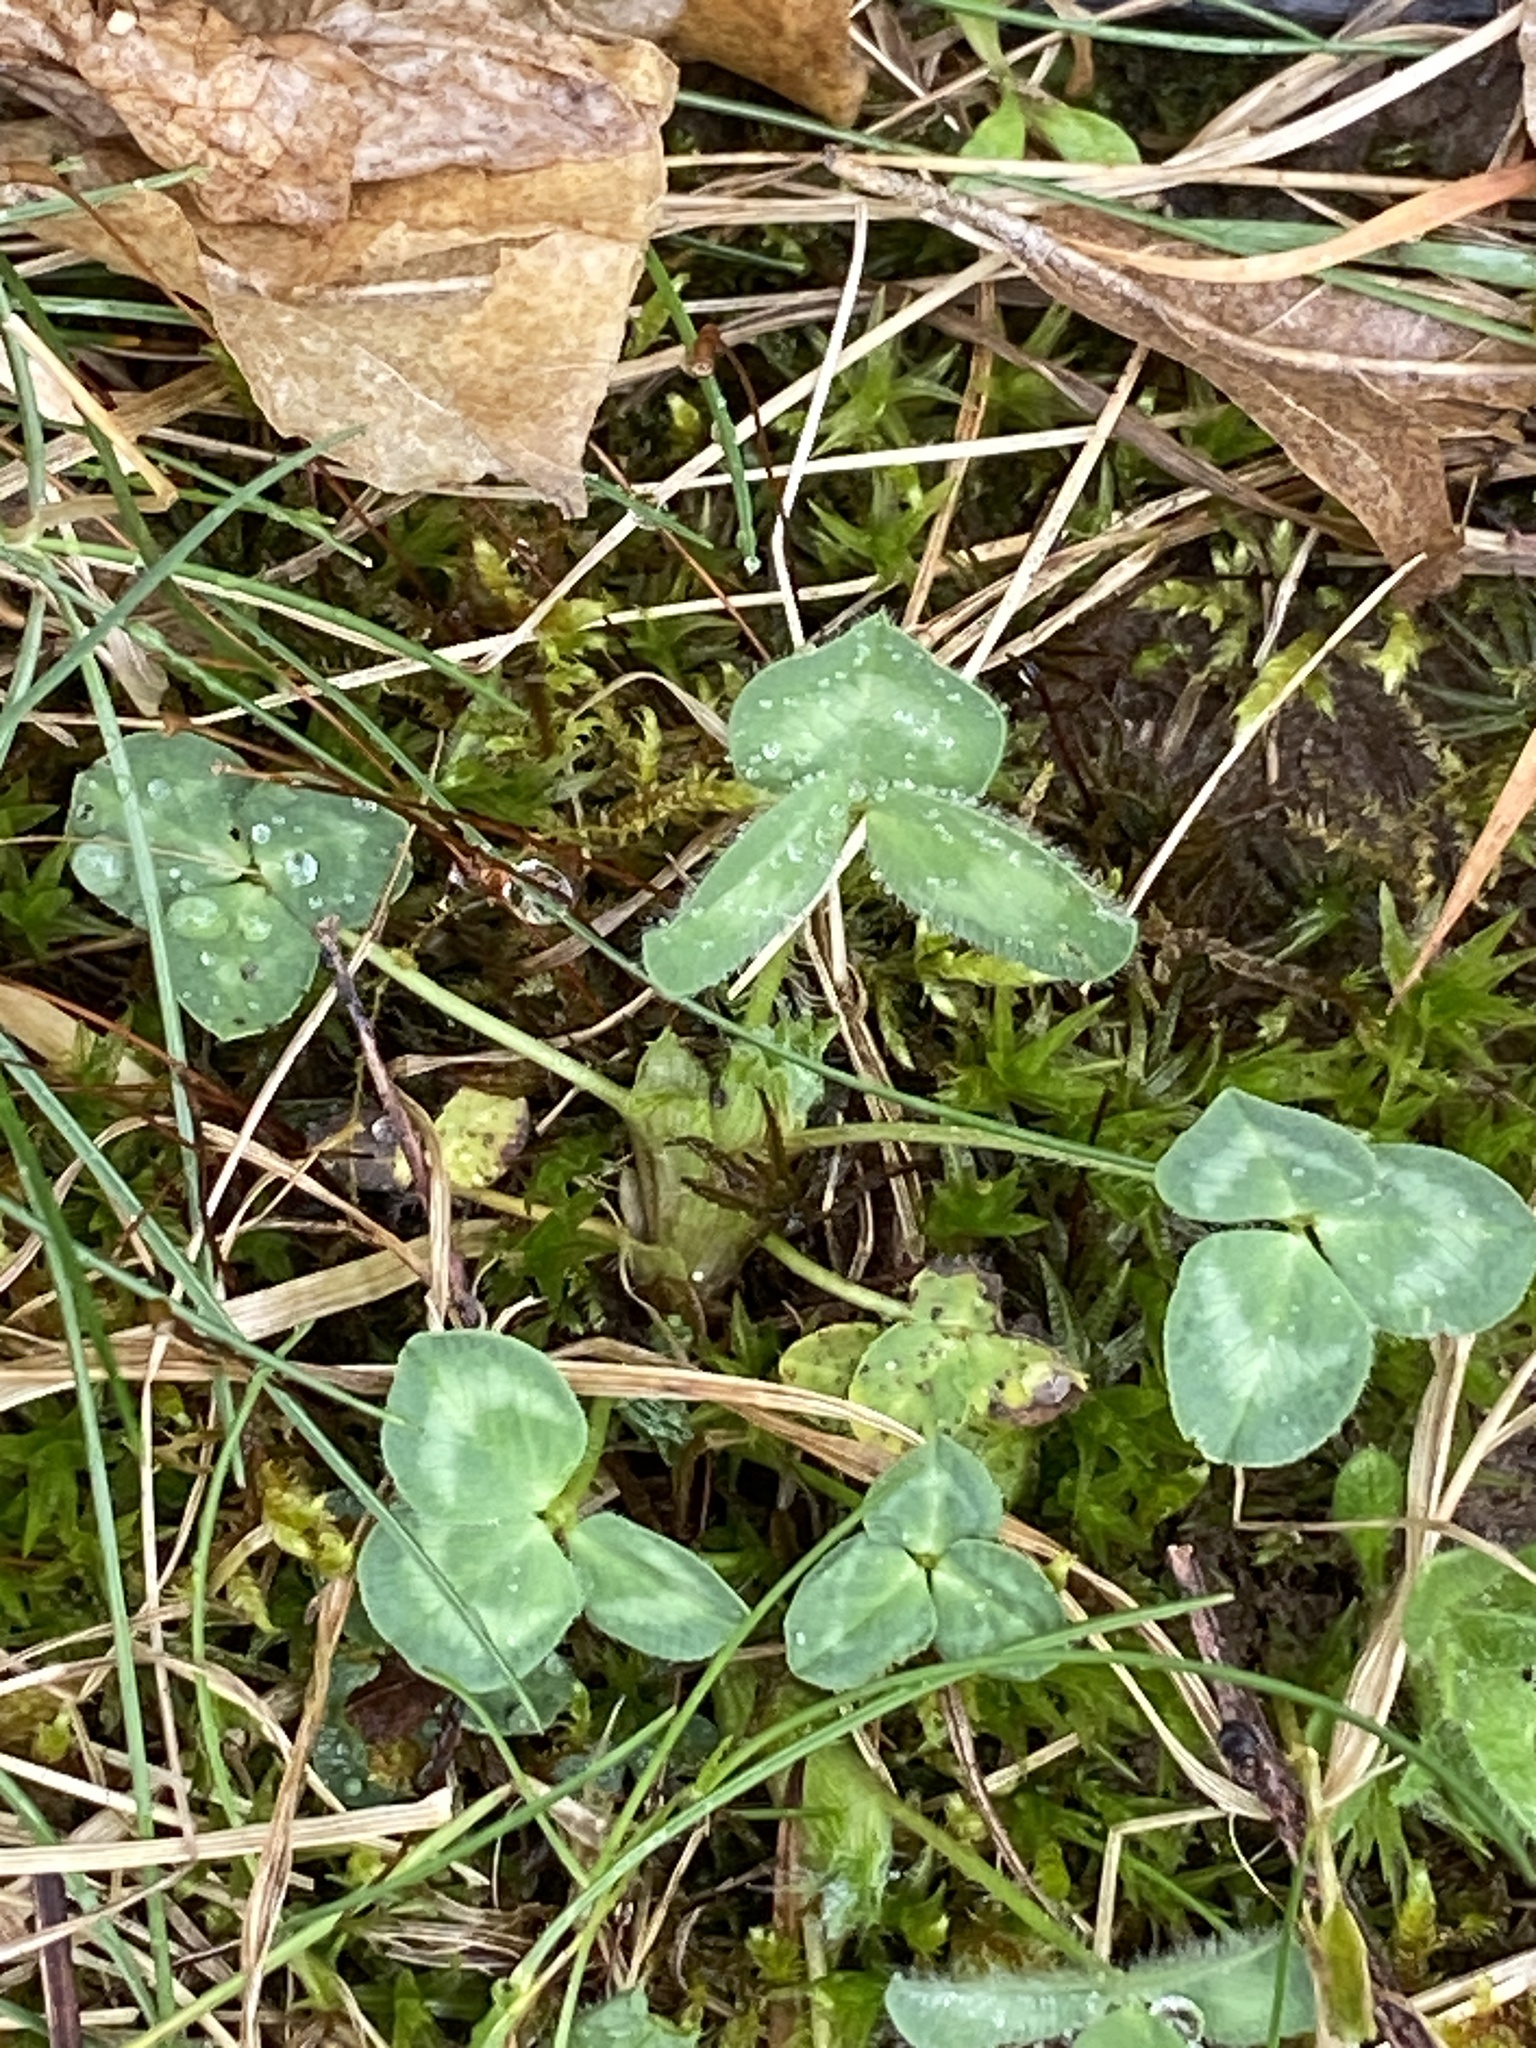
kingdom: Plantae
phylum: Tracheophyta
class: Magnoliopsida
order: Fabales
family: Fabaceae
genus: Trifolium
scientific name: Trifolium pratense
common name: Red clover
